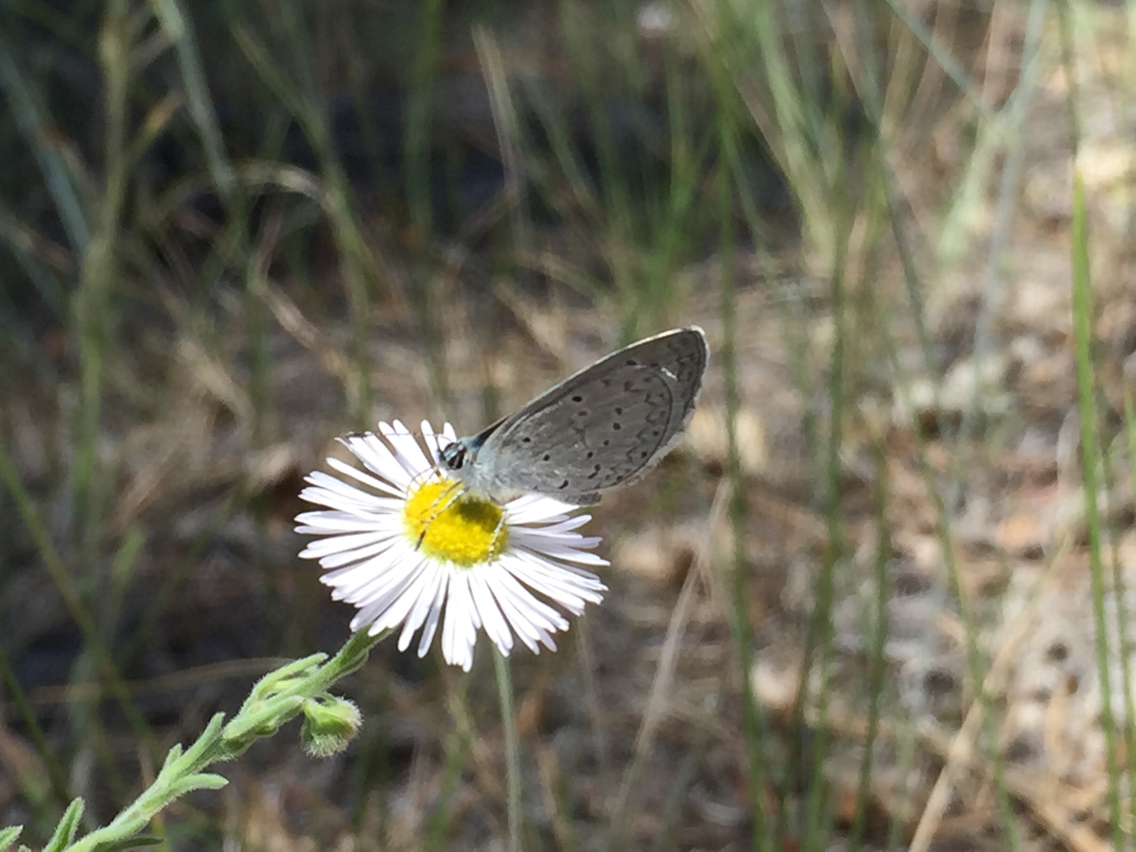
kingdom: Animalia
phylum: Arthropoda
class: Insecta
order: Lepidoptera
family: Lycaenidae
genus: Celastrina
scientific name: Celastrina argiolus
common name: Holly blue
